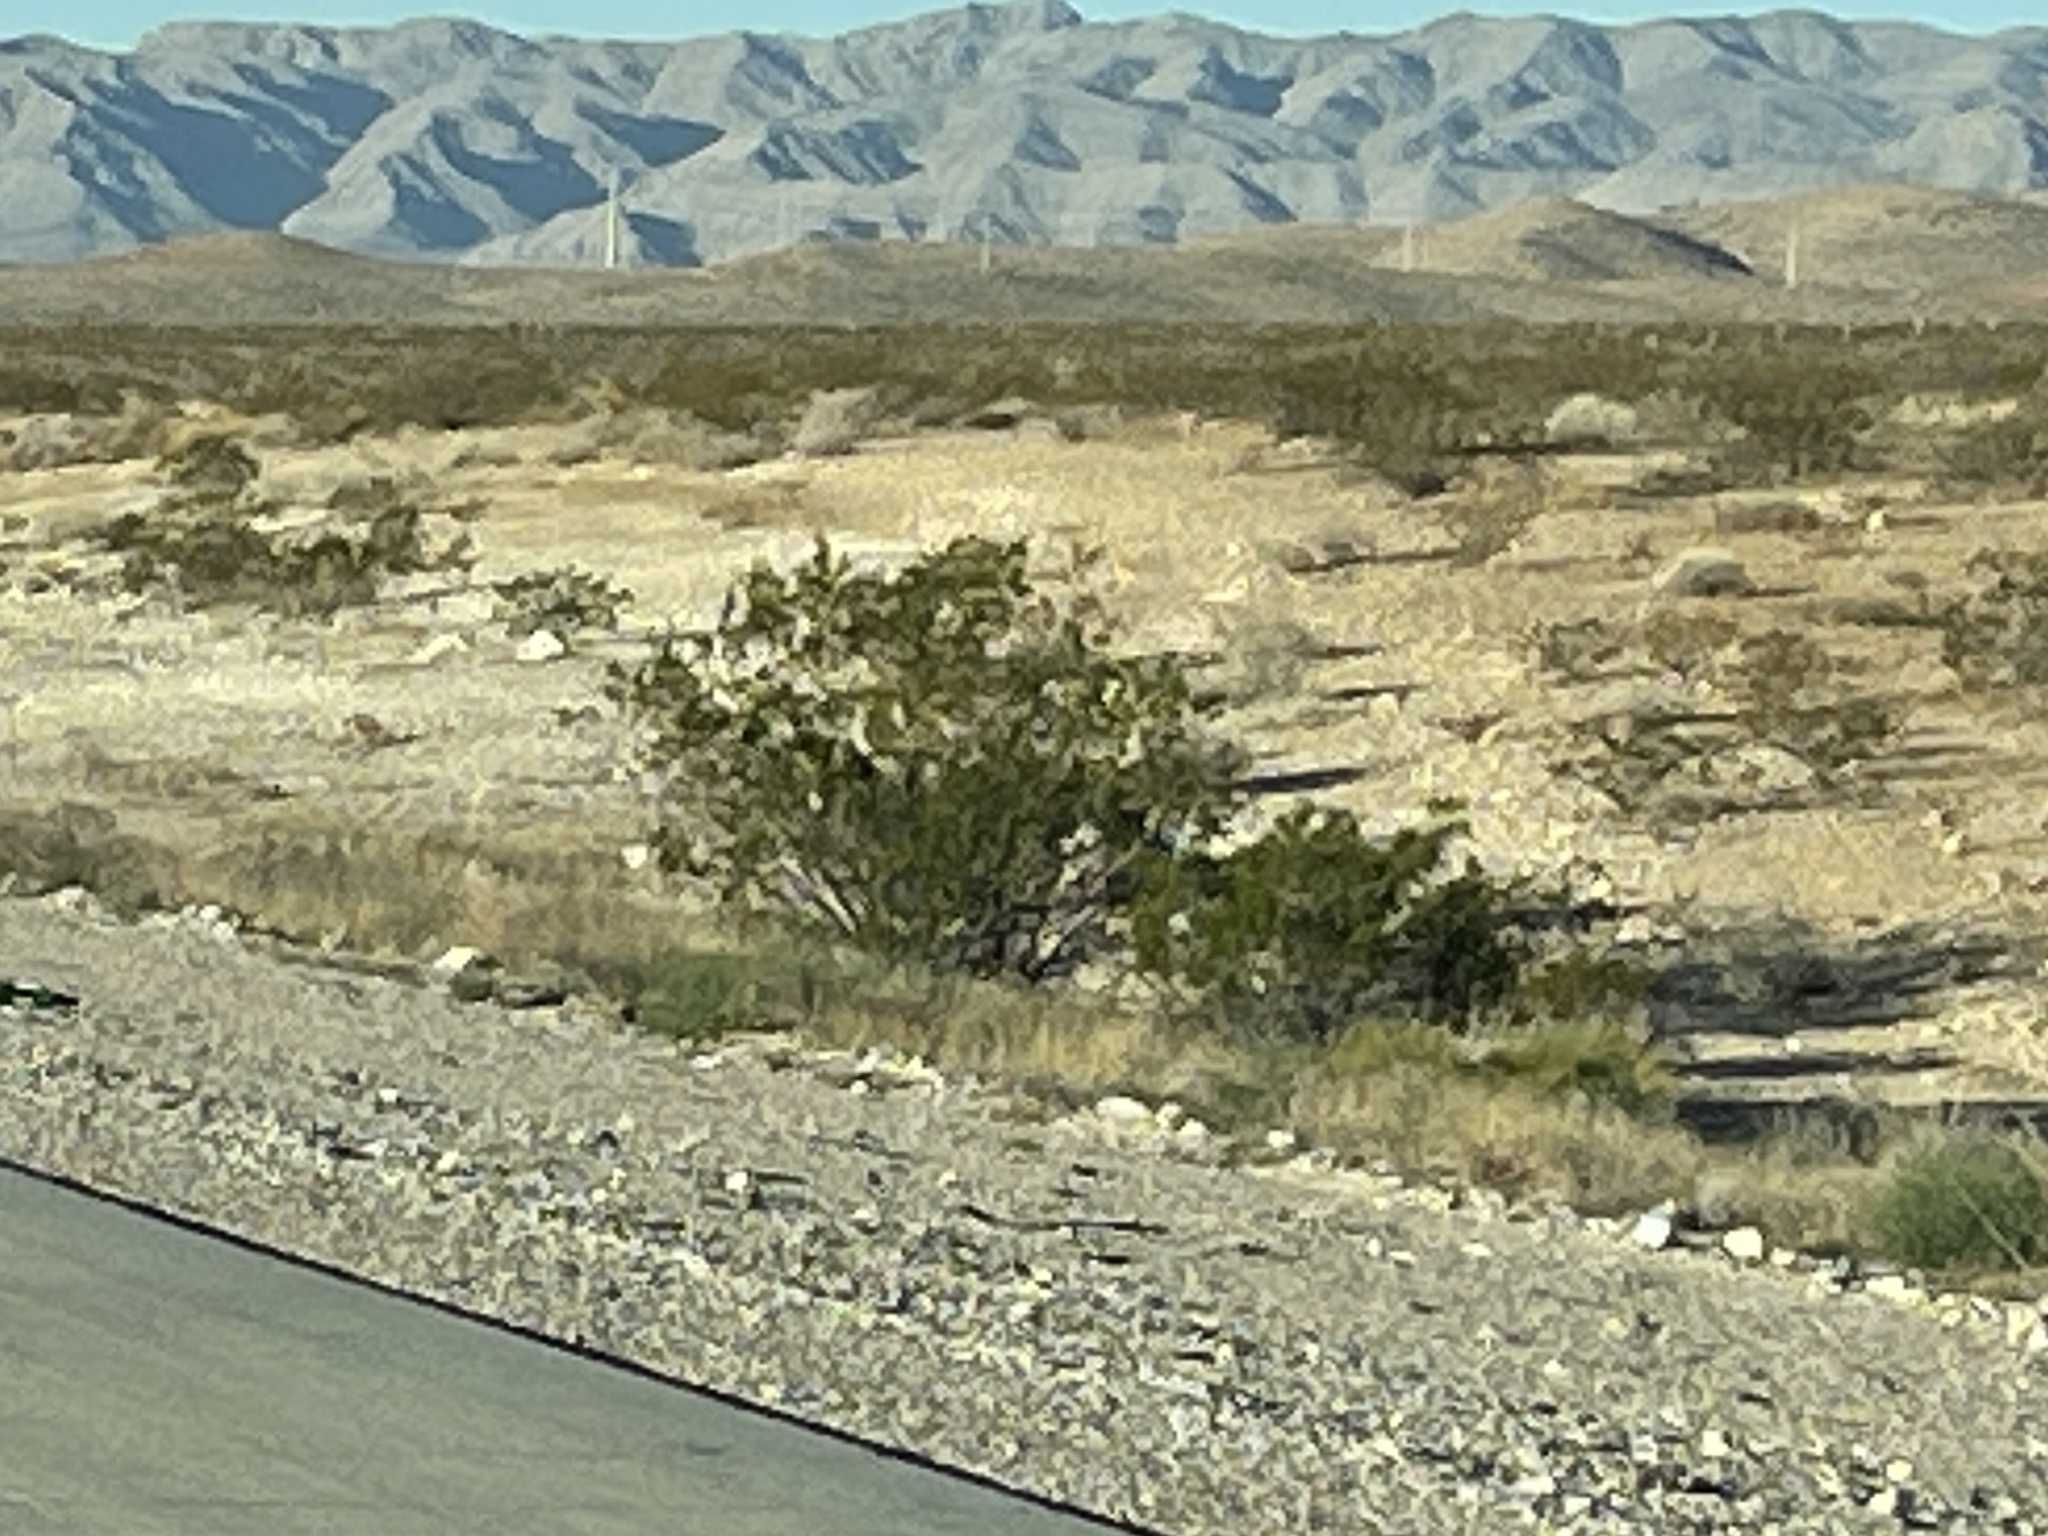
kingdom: Plantae
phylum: Tracheophyta
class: Magnoliopsida
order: Zygophyllales
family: Zygophyllaceae
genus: Larrea
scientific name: Larrea tridentata
